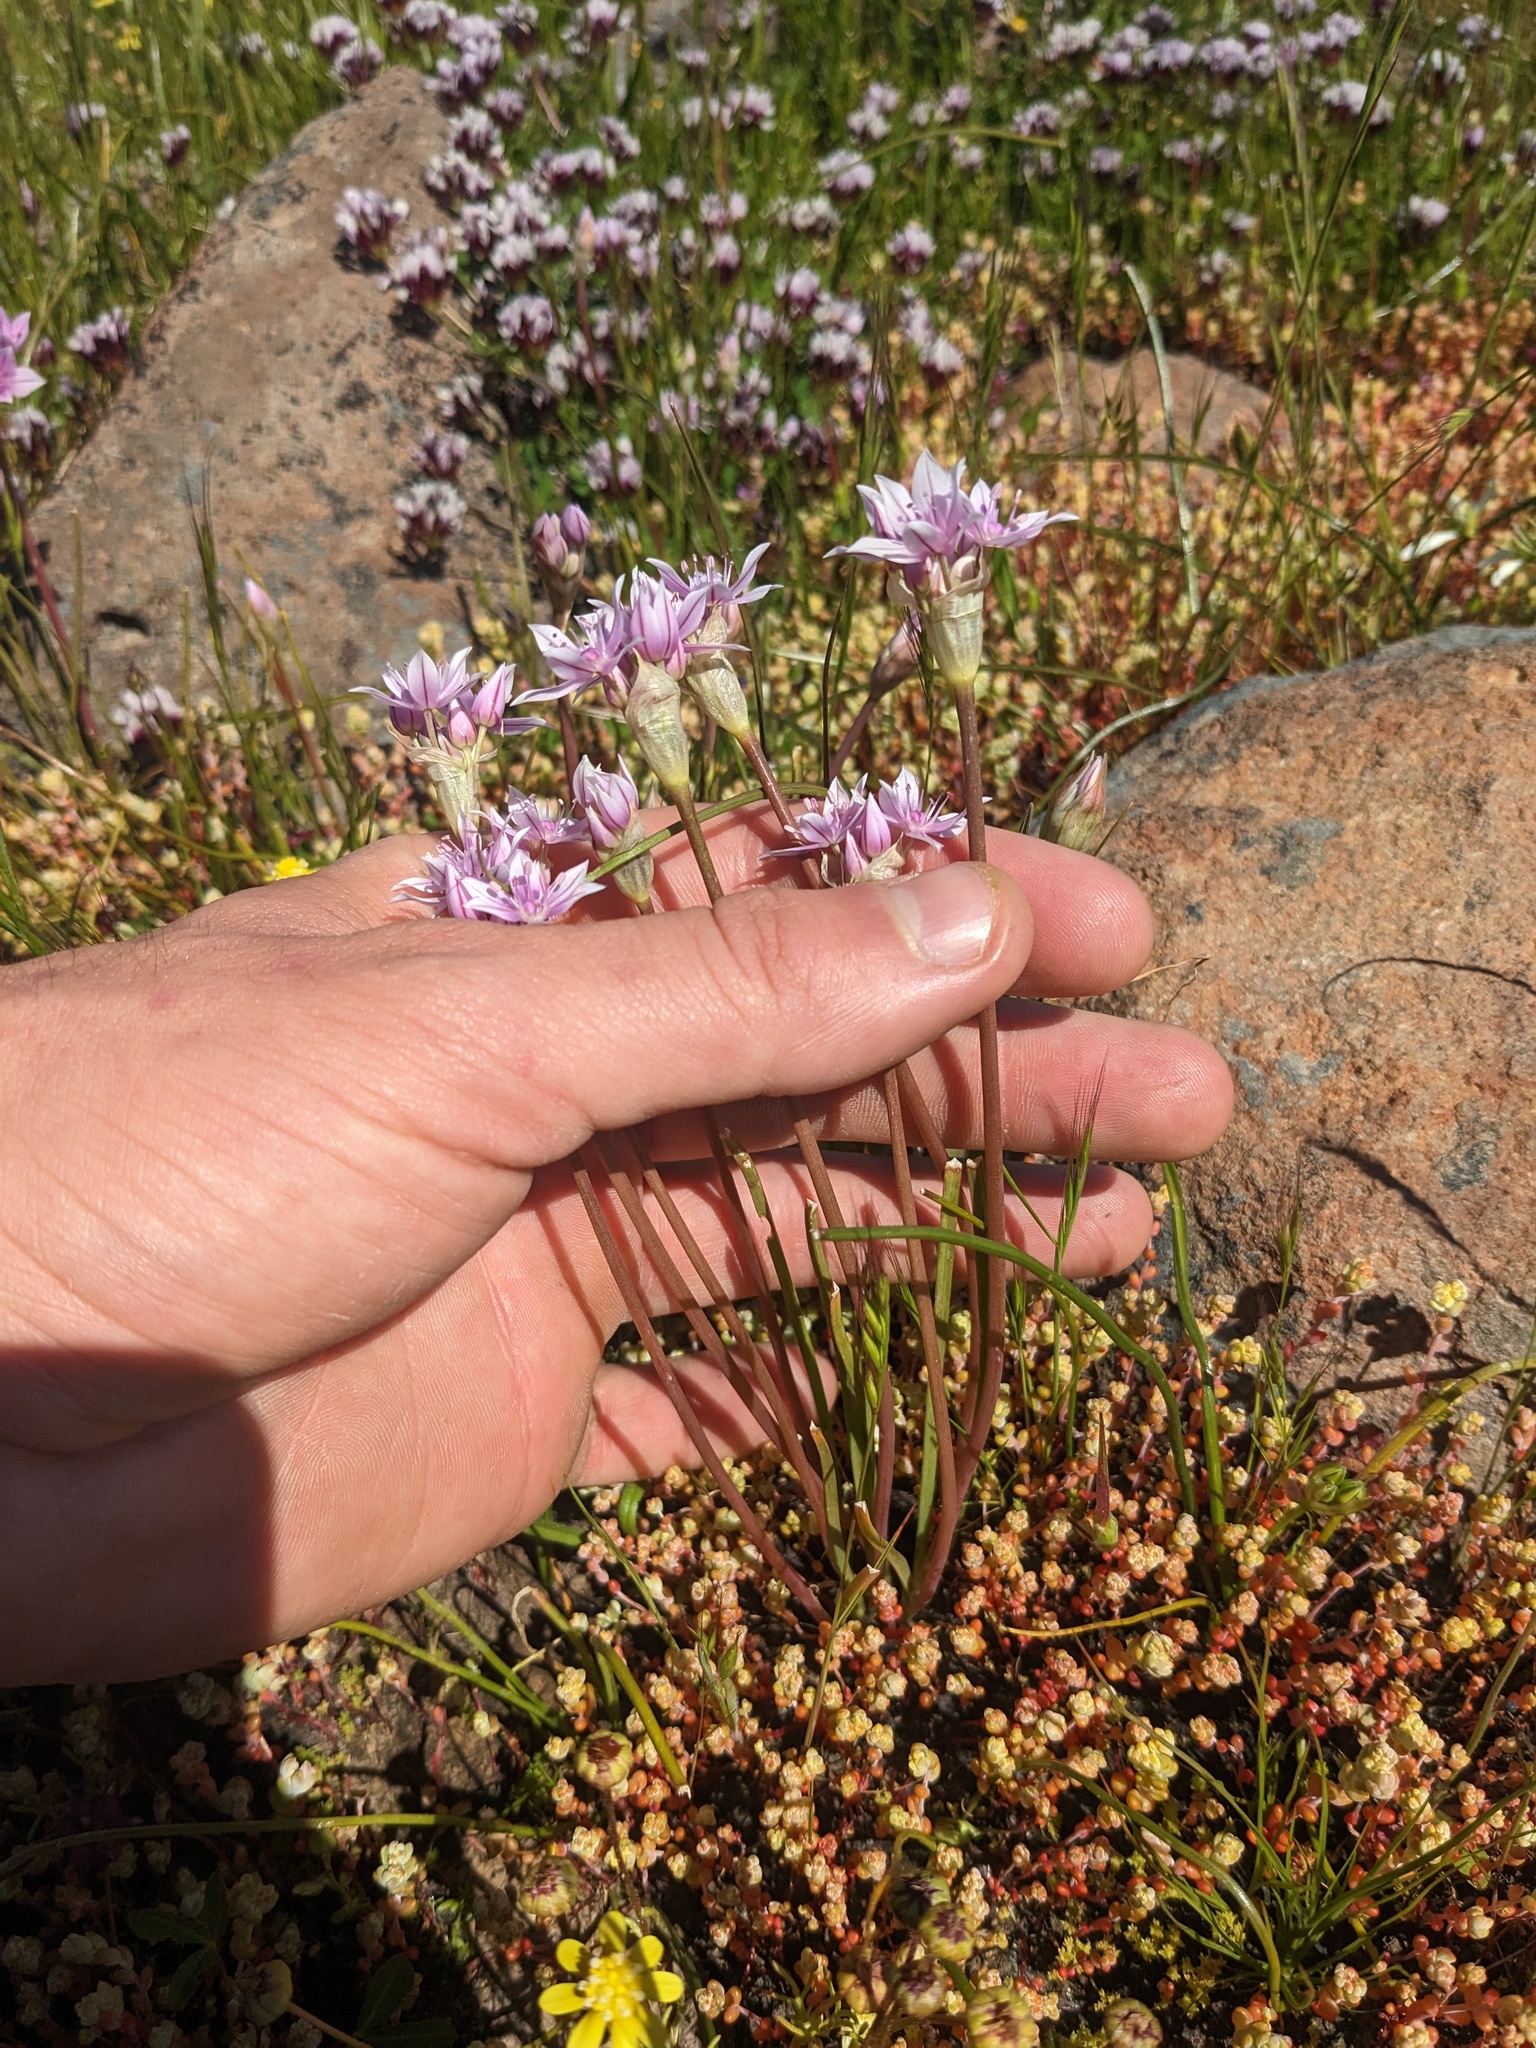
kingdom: Plantae
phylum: Tracheophyta
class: Liliopsida
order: Asparagales
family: Amaryllidaceae
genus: Allium
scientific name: Allium hyalinum
